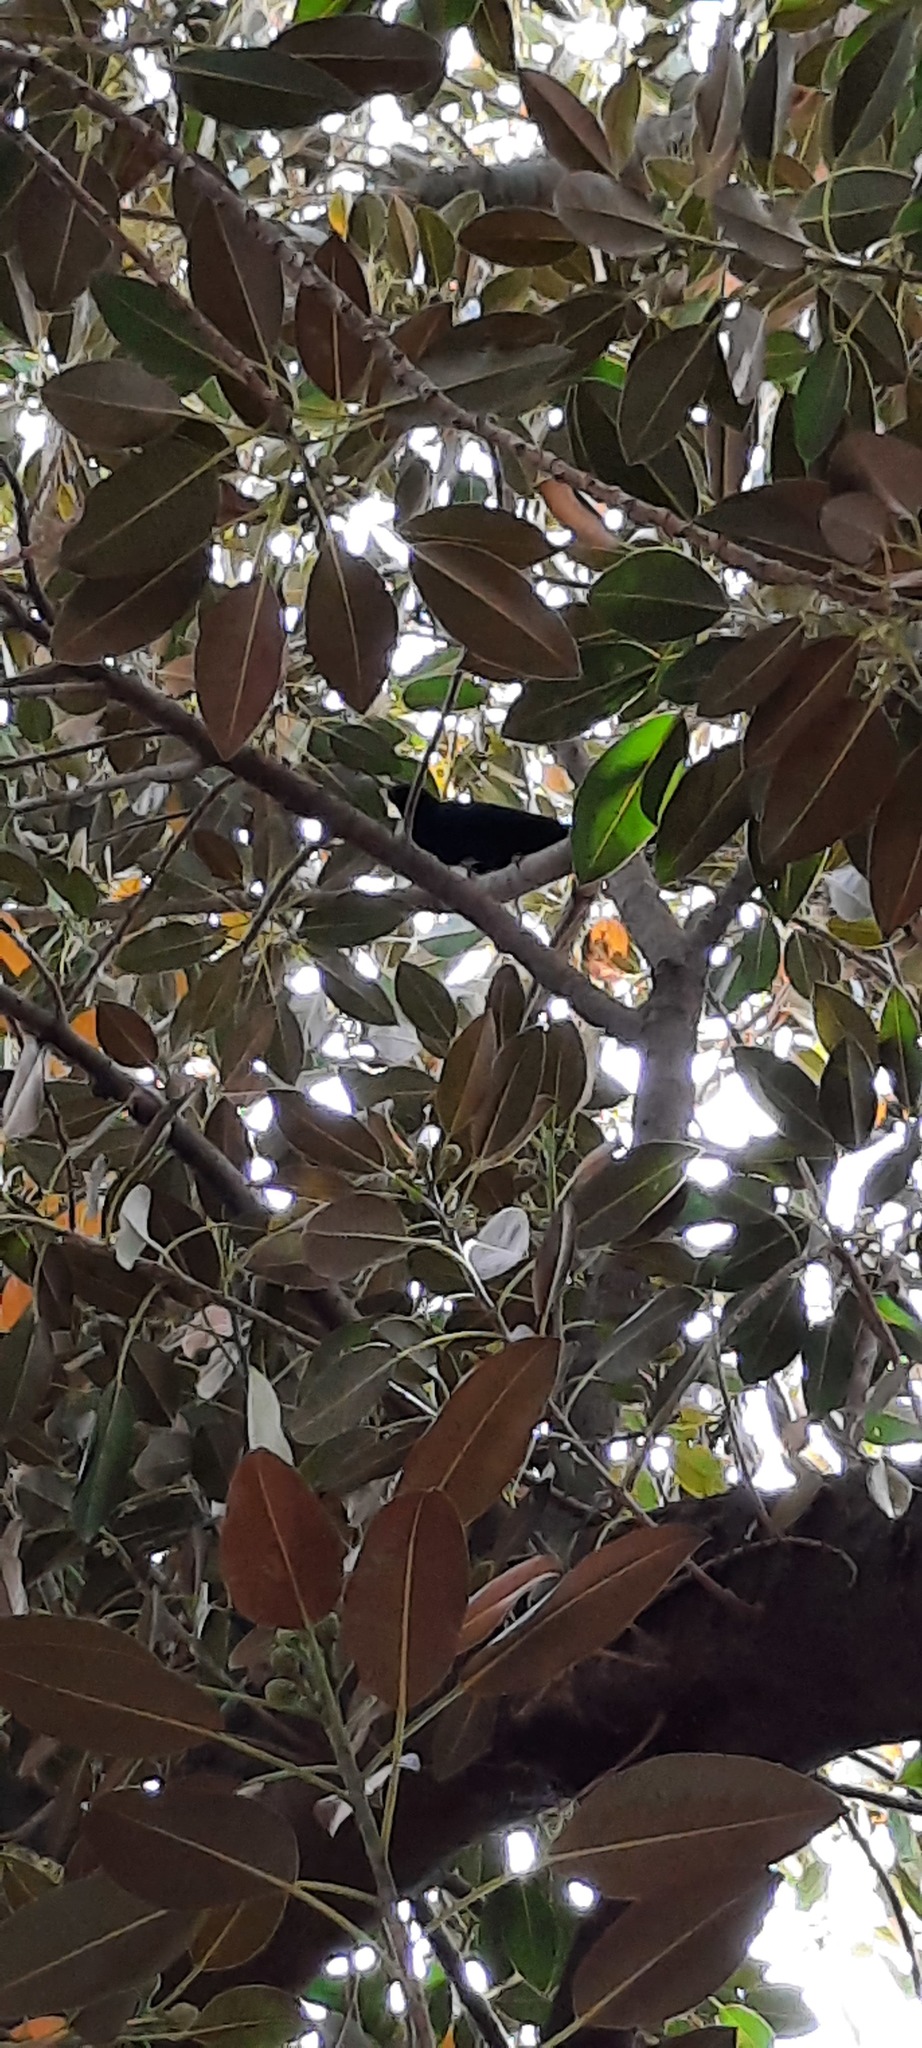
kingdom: Animalia
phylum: Chordata
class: Aves
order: Cuculiformes
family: Cuculidae
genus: Eudynamys
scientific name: Eudynamys orientalis
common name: Pacific koel
